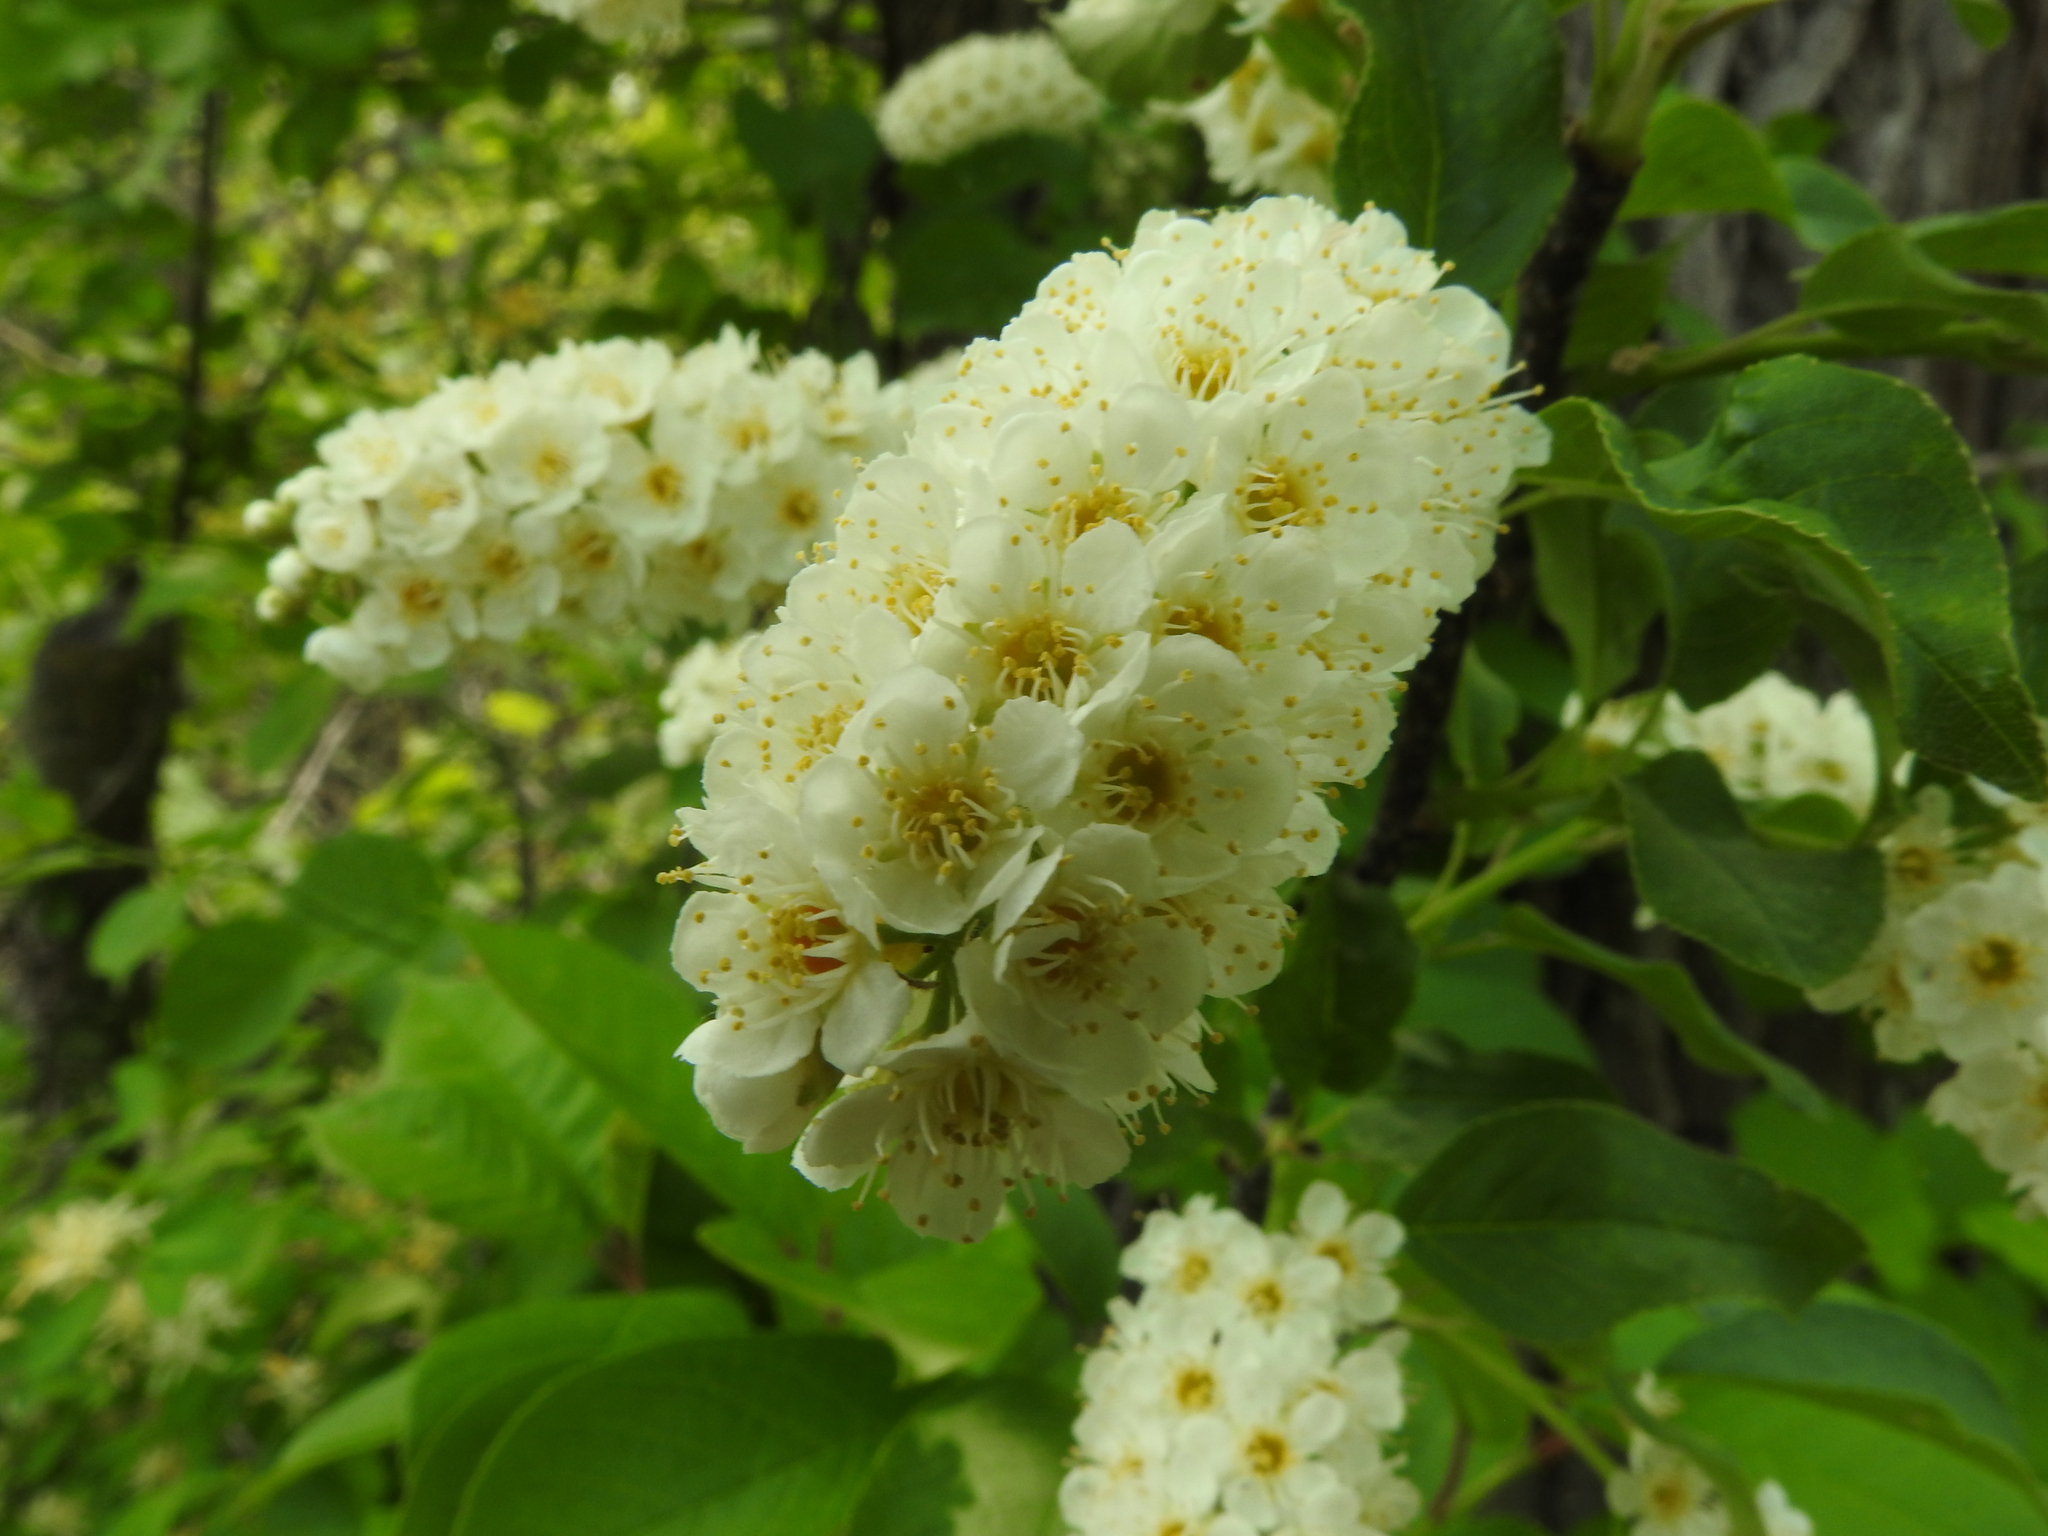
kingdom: Plantae
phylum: Tracheophyta
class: Magnoliopsida
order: Rosales
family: Rosaceae
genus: Prunus
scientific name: Prunus virginiana
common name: Chokecherry
